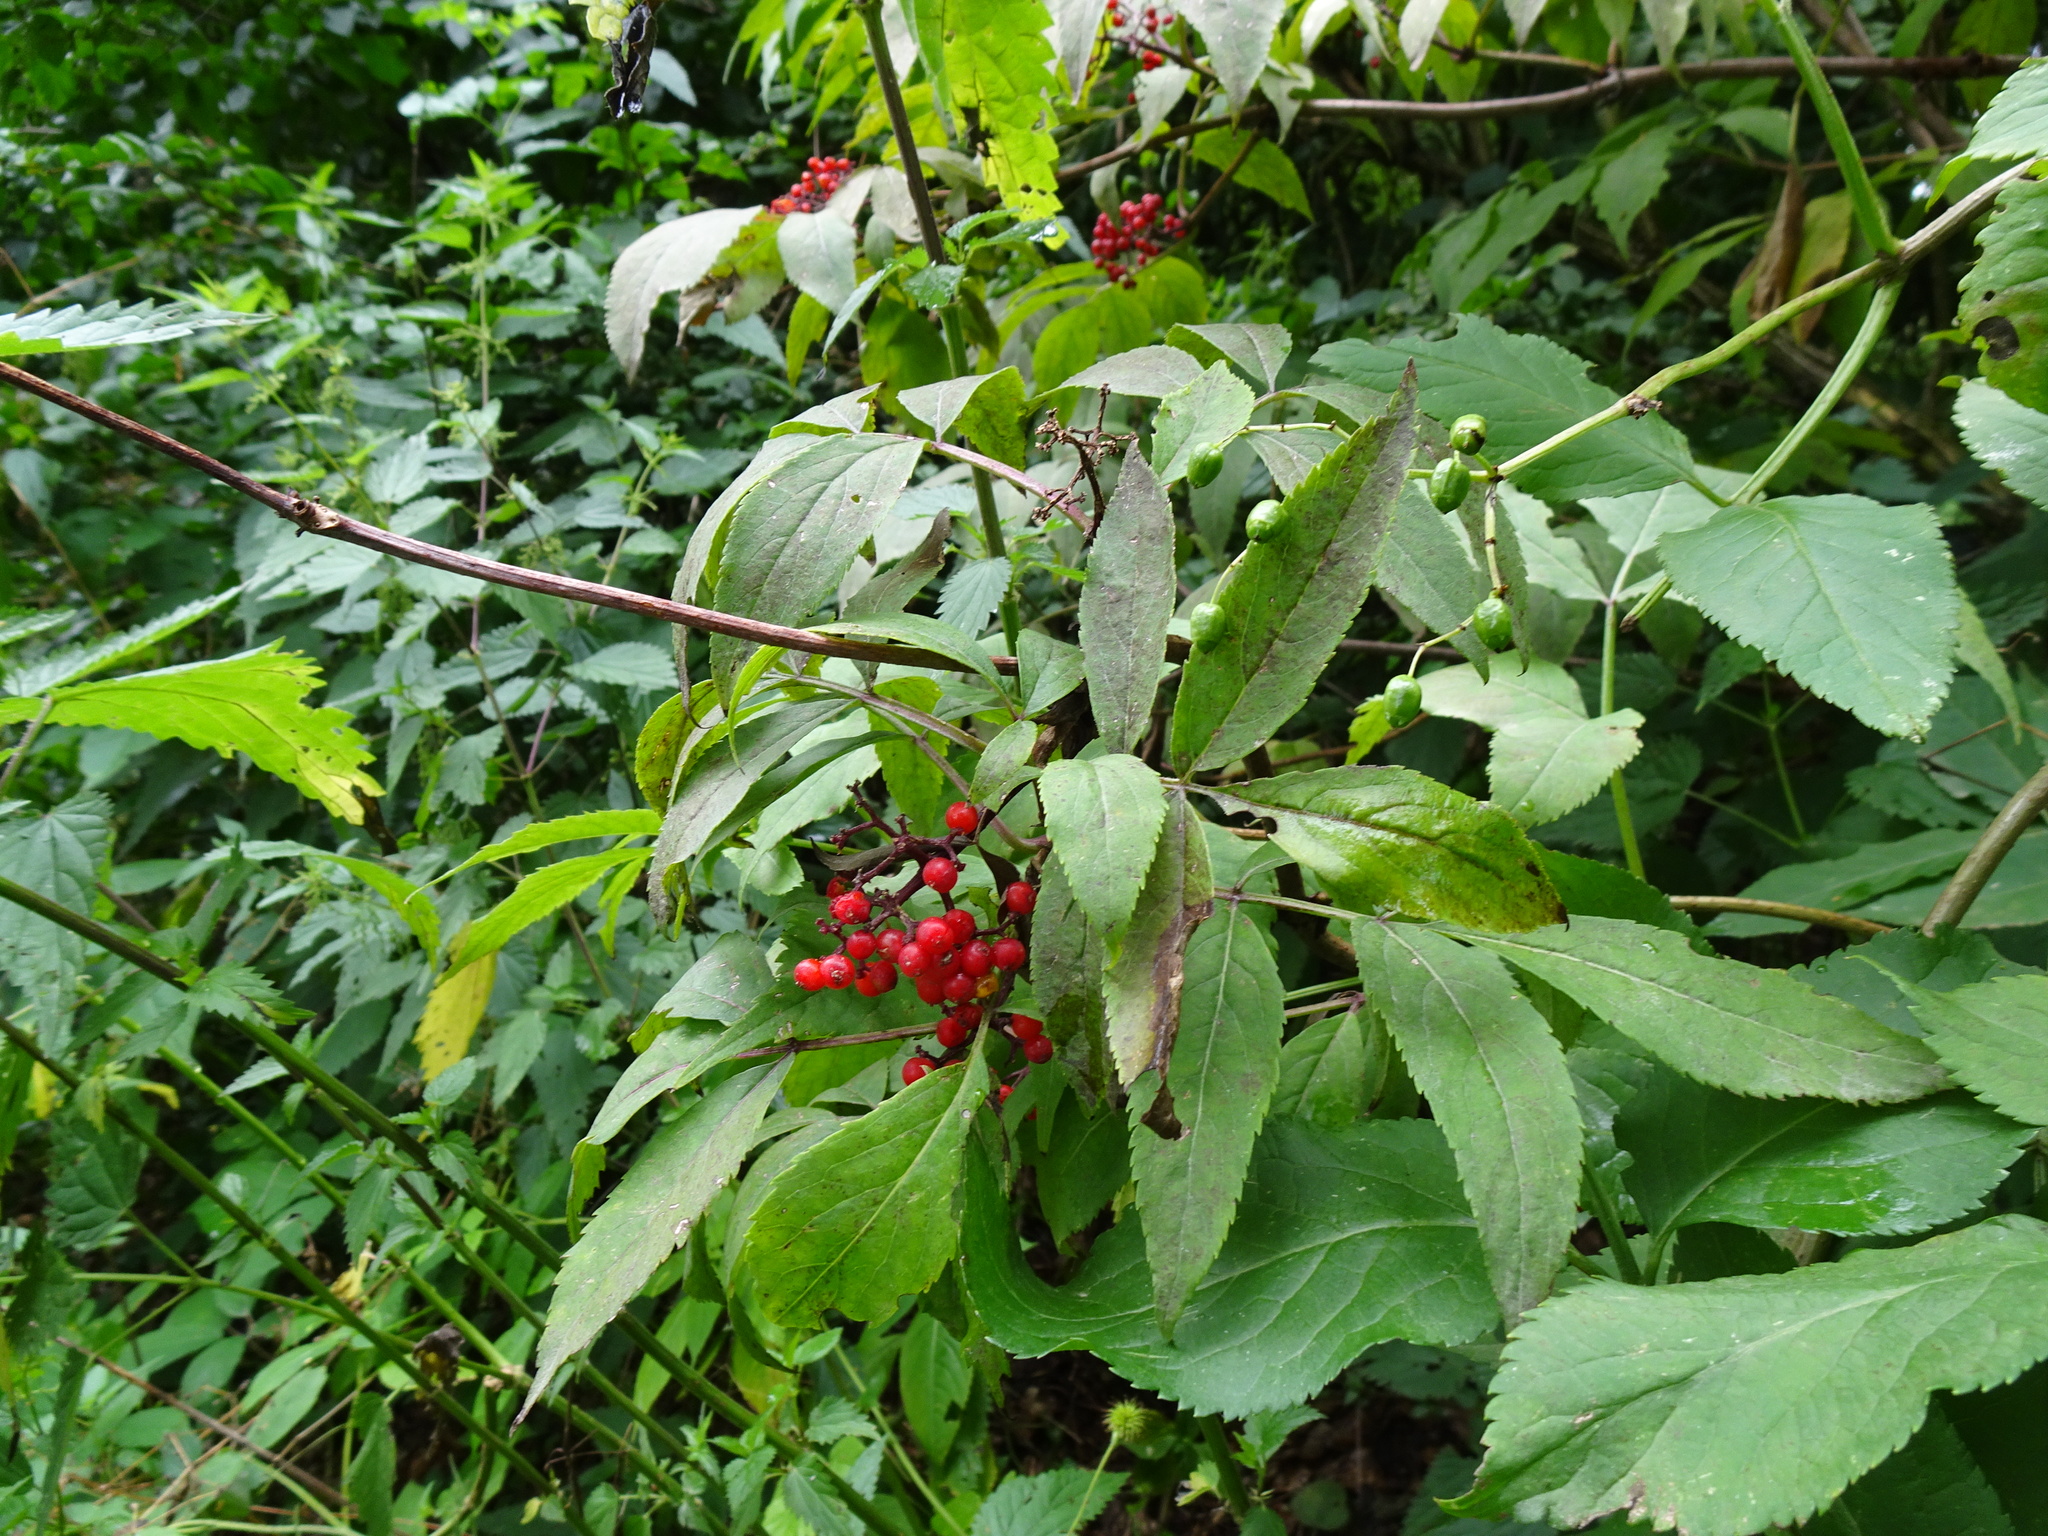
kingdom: Plantae
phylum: Tracheophyta
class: Magnoliopsida
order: Dipsacales
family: Viburnaceae
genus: Sambucus
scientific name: Sambucus racemosa
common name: Red-berried elder
